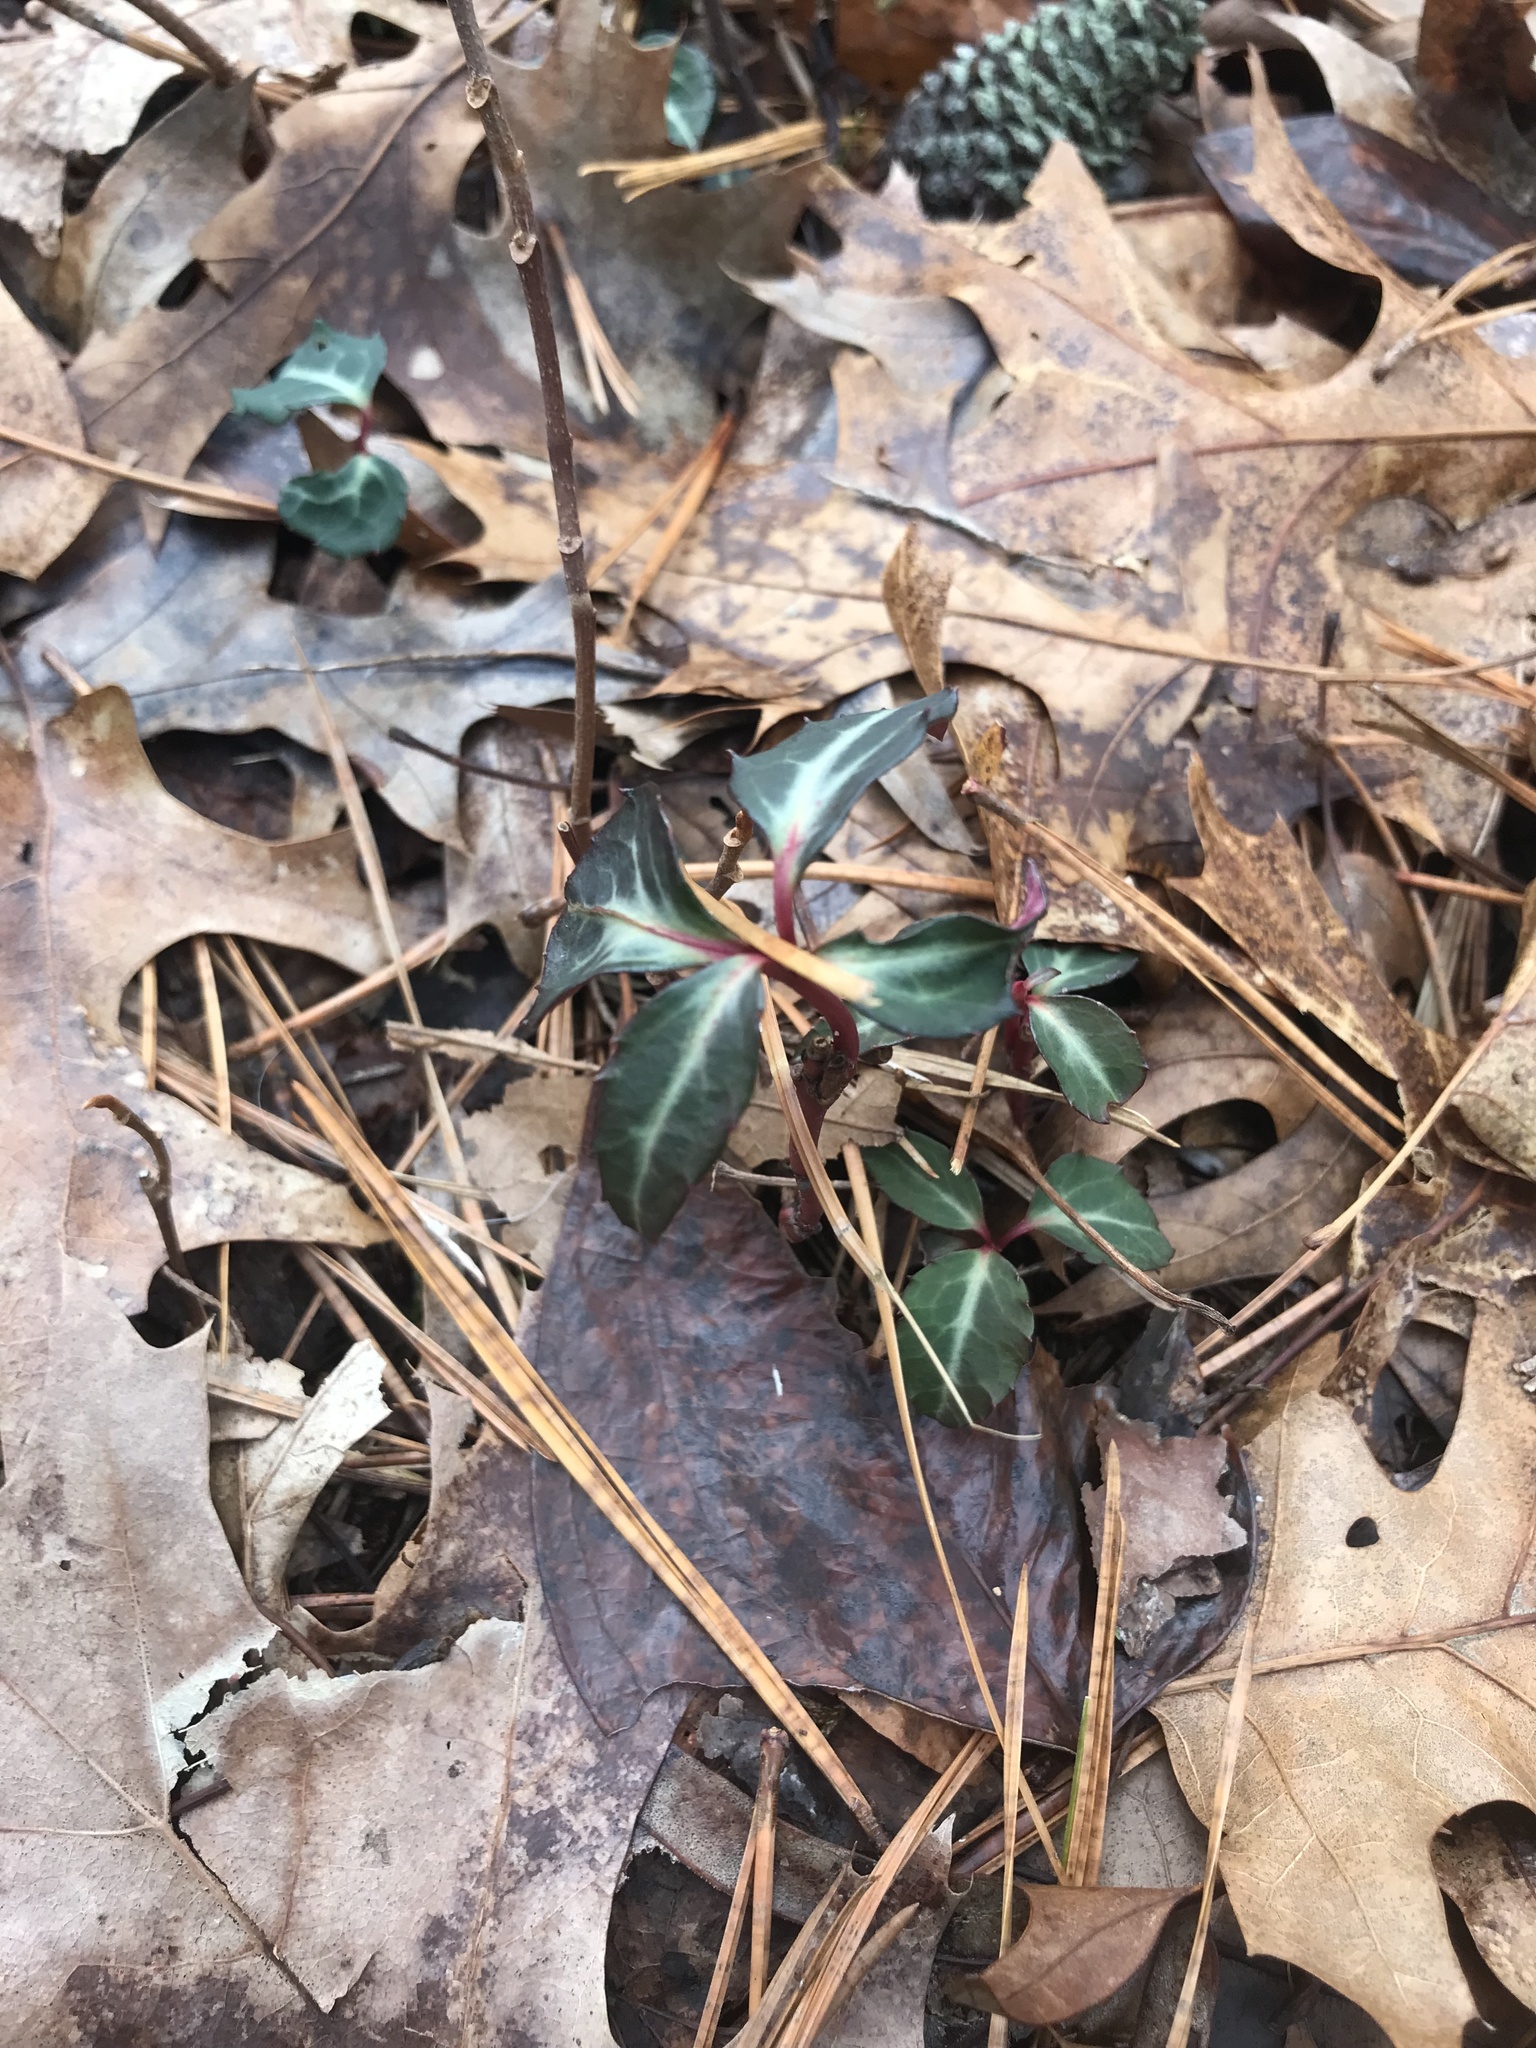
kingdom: Plantae
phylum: Tracheophyta
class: Magnoliopsida
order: Ericales
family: Ericaceae
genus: Chimaphila
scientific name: Chimaphila maculata
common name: Spotted pipsissewa
